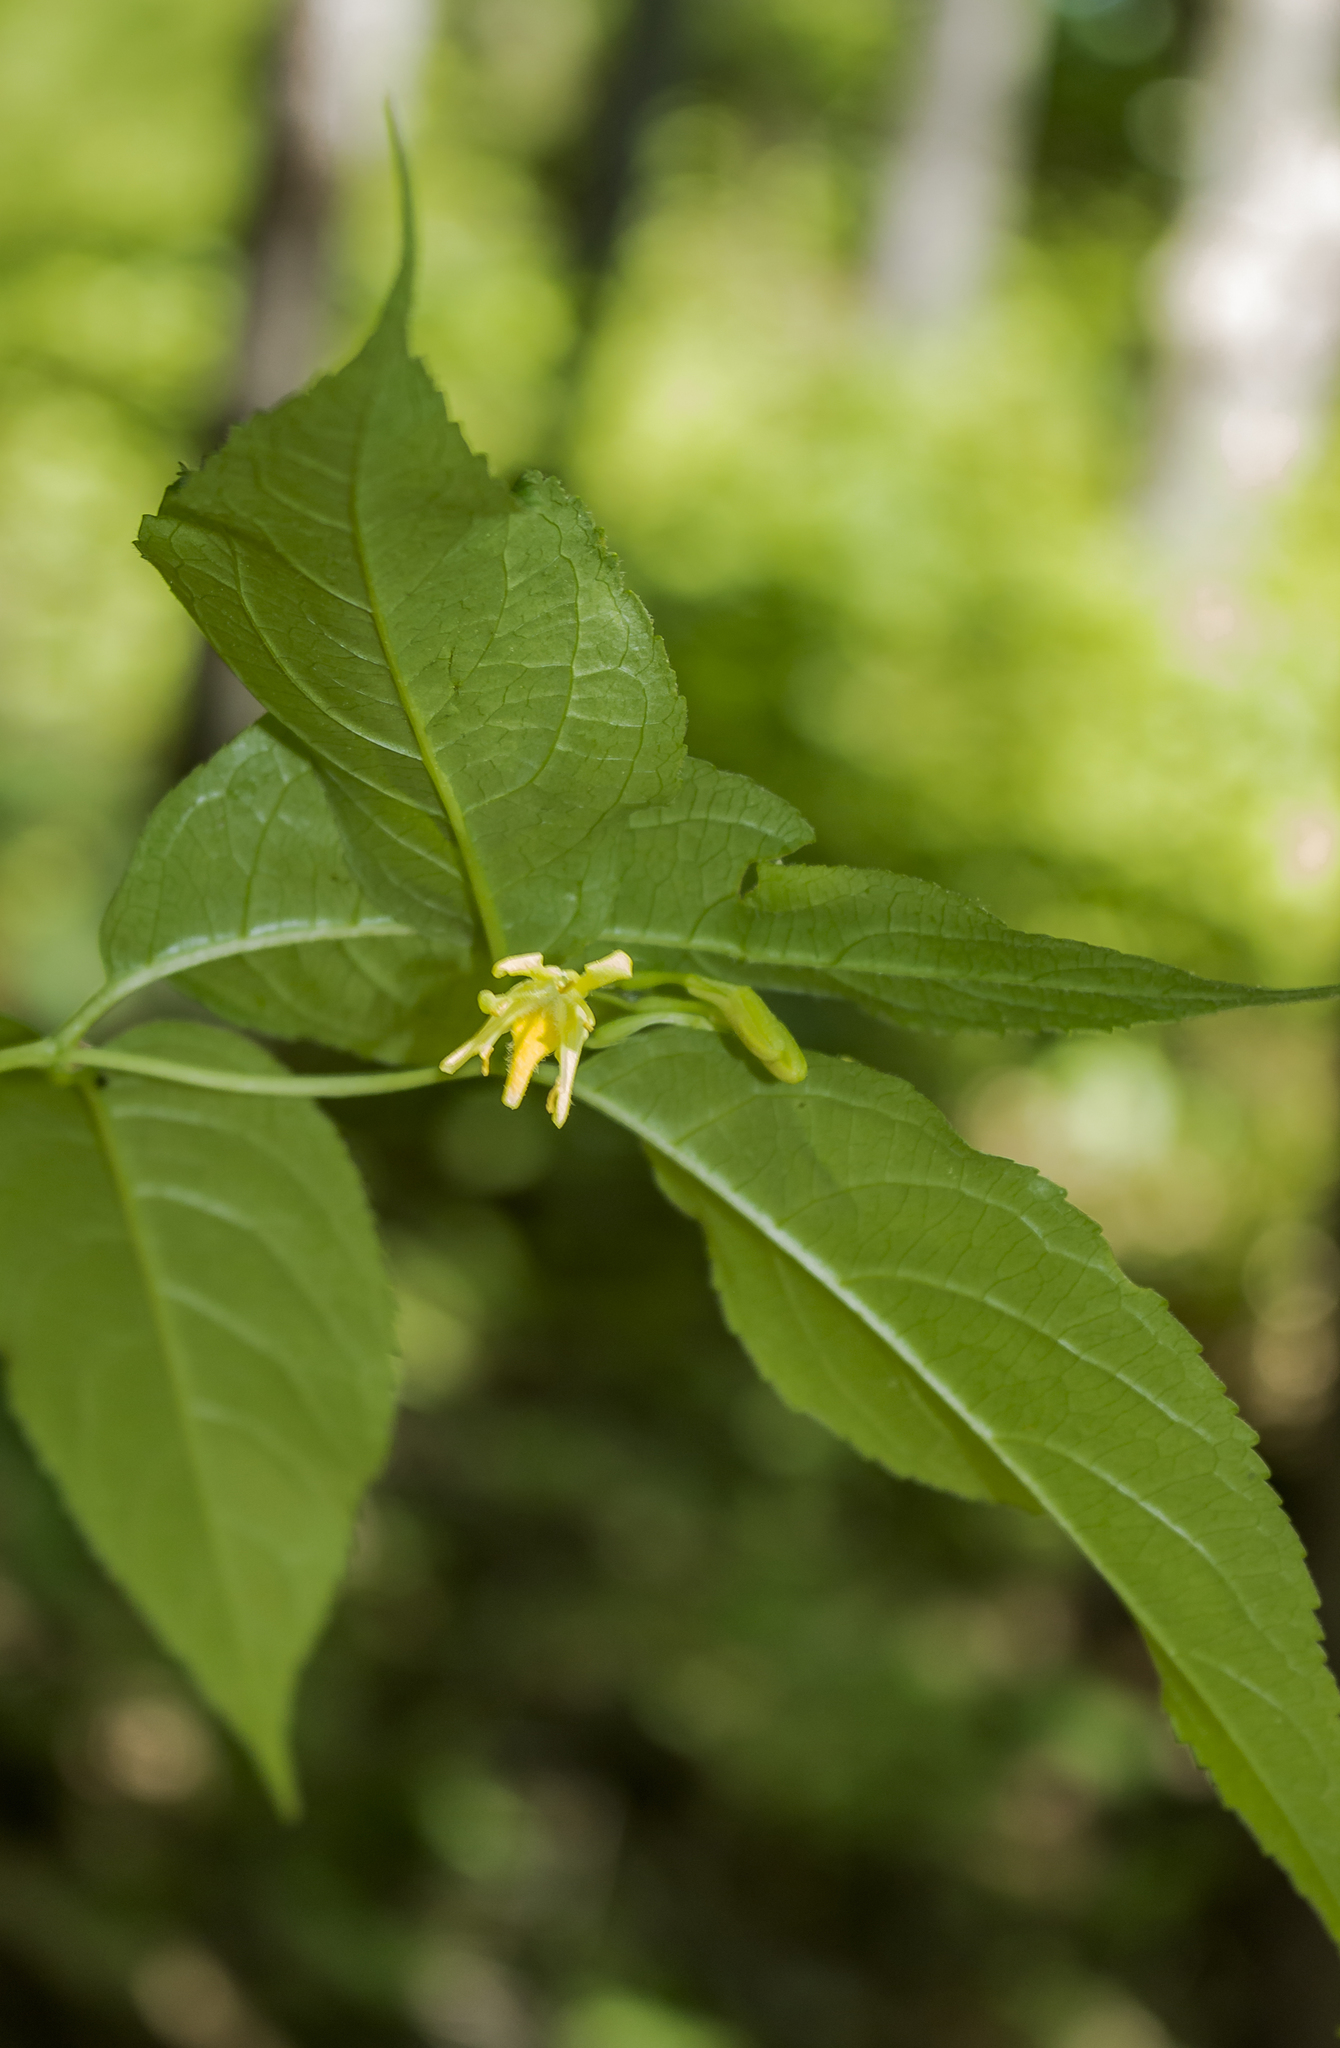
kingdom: Plantae
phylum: Tracheophyta
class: Magnoliopsida
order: Dipsacales
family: Caprifoliaceae
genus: Diervilla
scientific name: Diervilla lonicera
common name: Bush-honeysuckle
